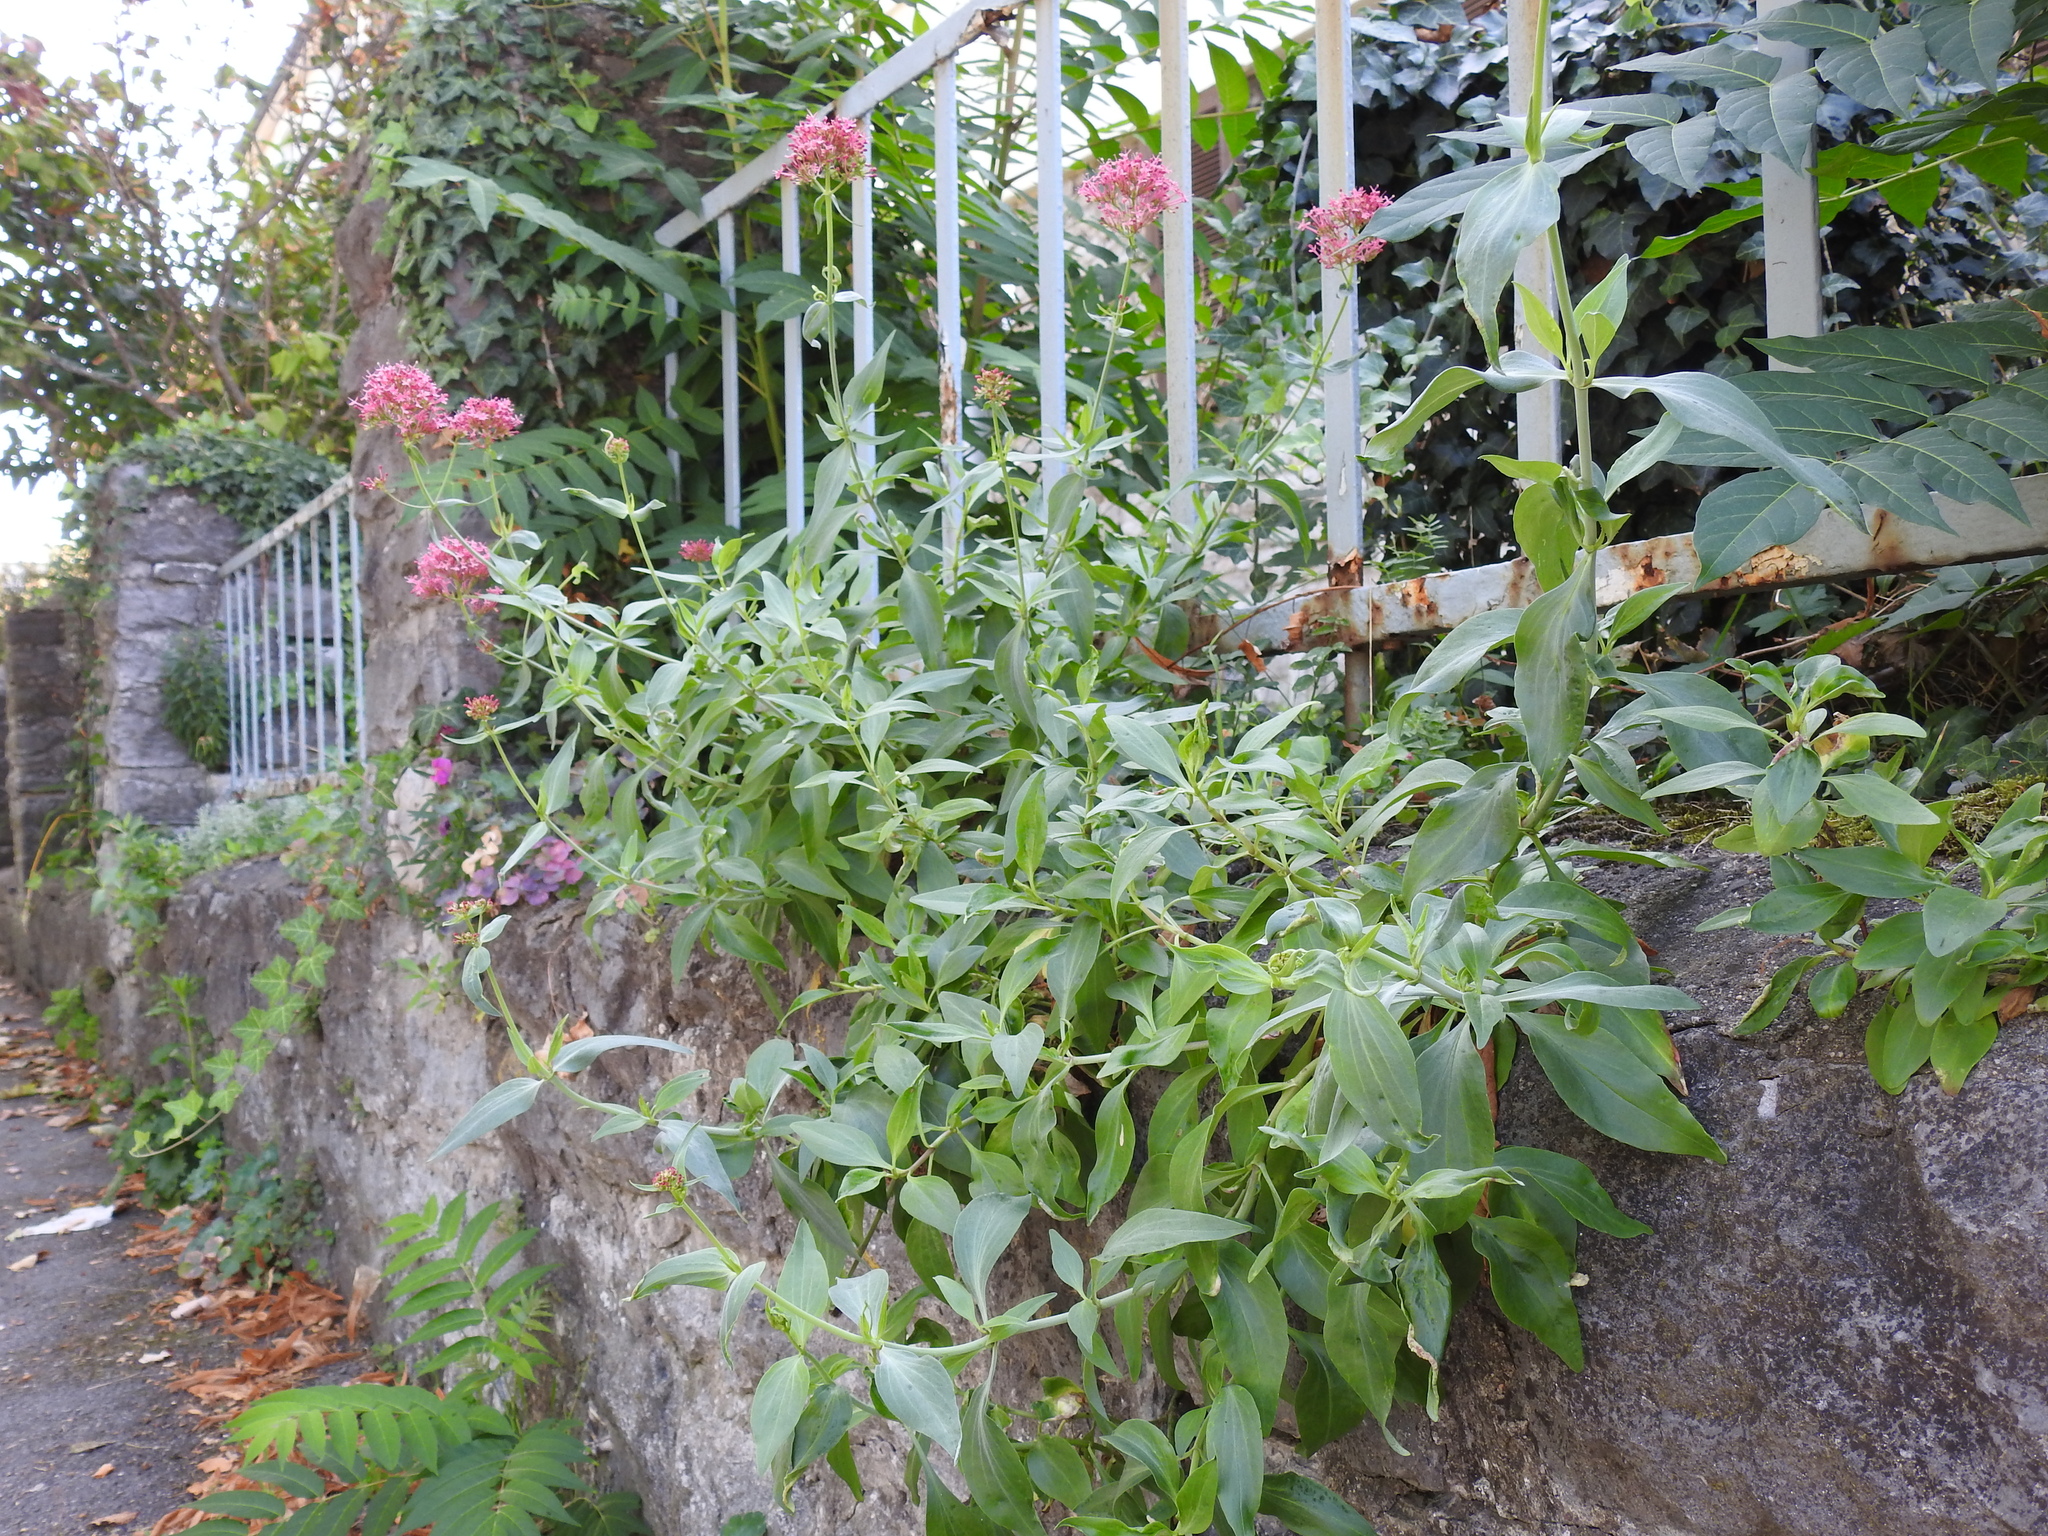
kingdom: Plantae
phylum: Tracheophyta
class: Magnoliopsida
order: Dipsacales
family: Caprifoliaceae
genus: Centranthus
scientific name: Centranthus ruber
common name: Red valerian
